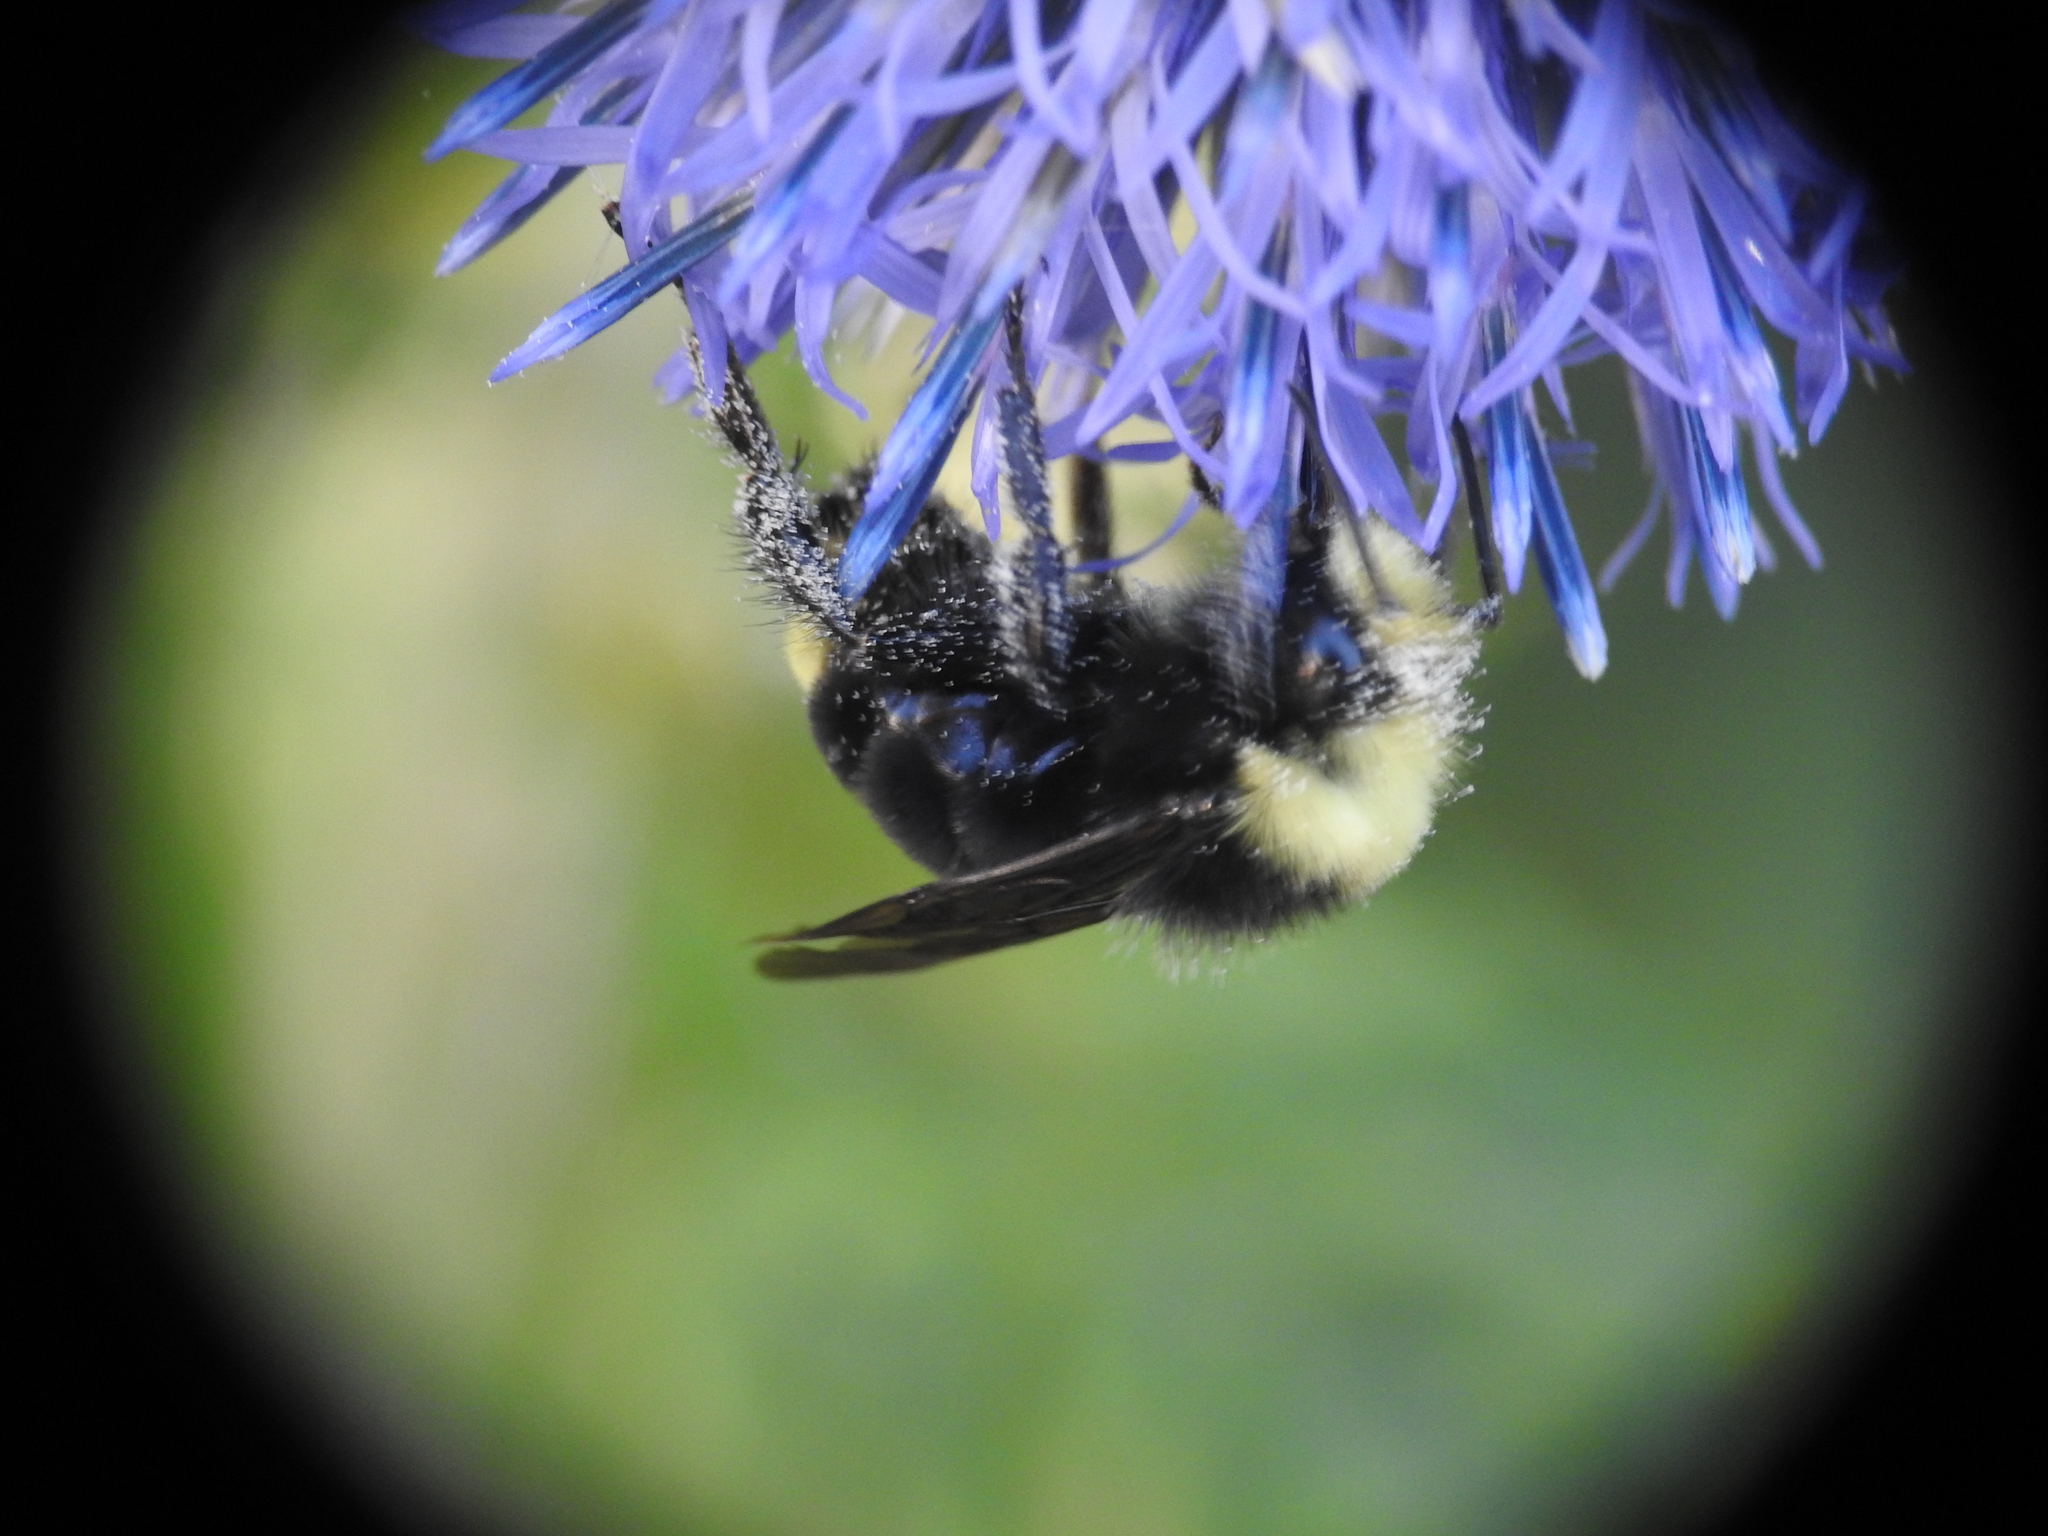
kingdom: Animalia
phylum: Arthropoda
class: Insecta
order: Hymenoptera
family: Apidae
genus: Bombus
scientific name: Bombus vosnesenskii
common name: Vosnesensky bumble bee
